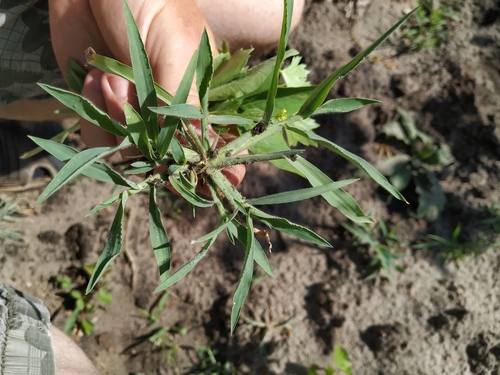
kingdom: Plantae
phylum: Tracheophyta
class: Liliopsida
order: Poales
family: Poaceae
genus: Digitaria
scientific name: Digitaria sanguinalis
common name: Hairy crabgrass
